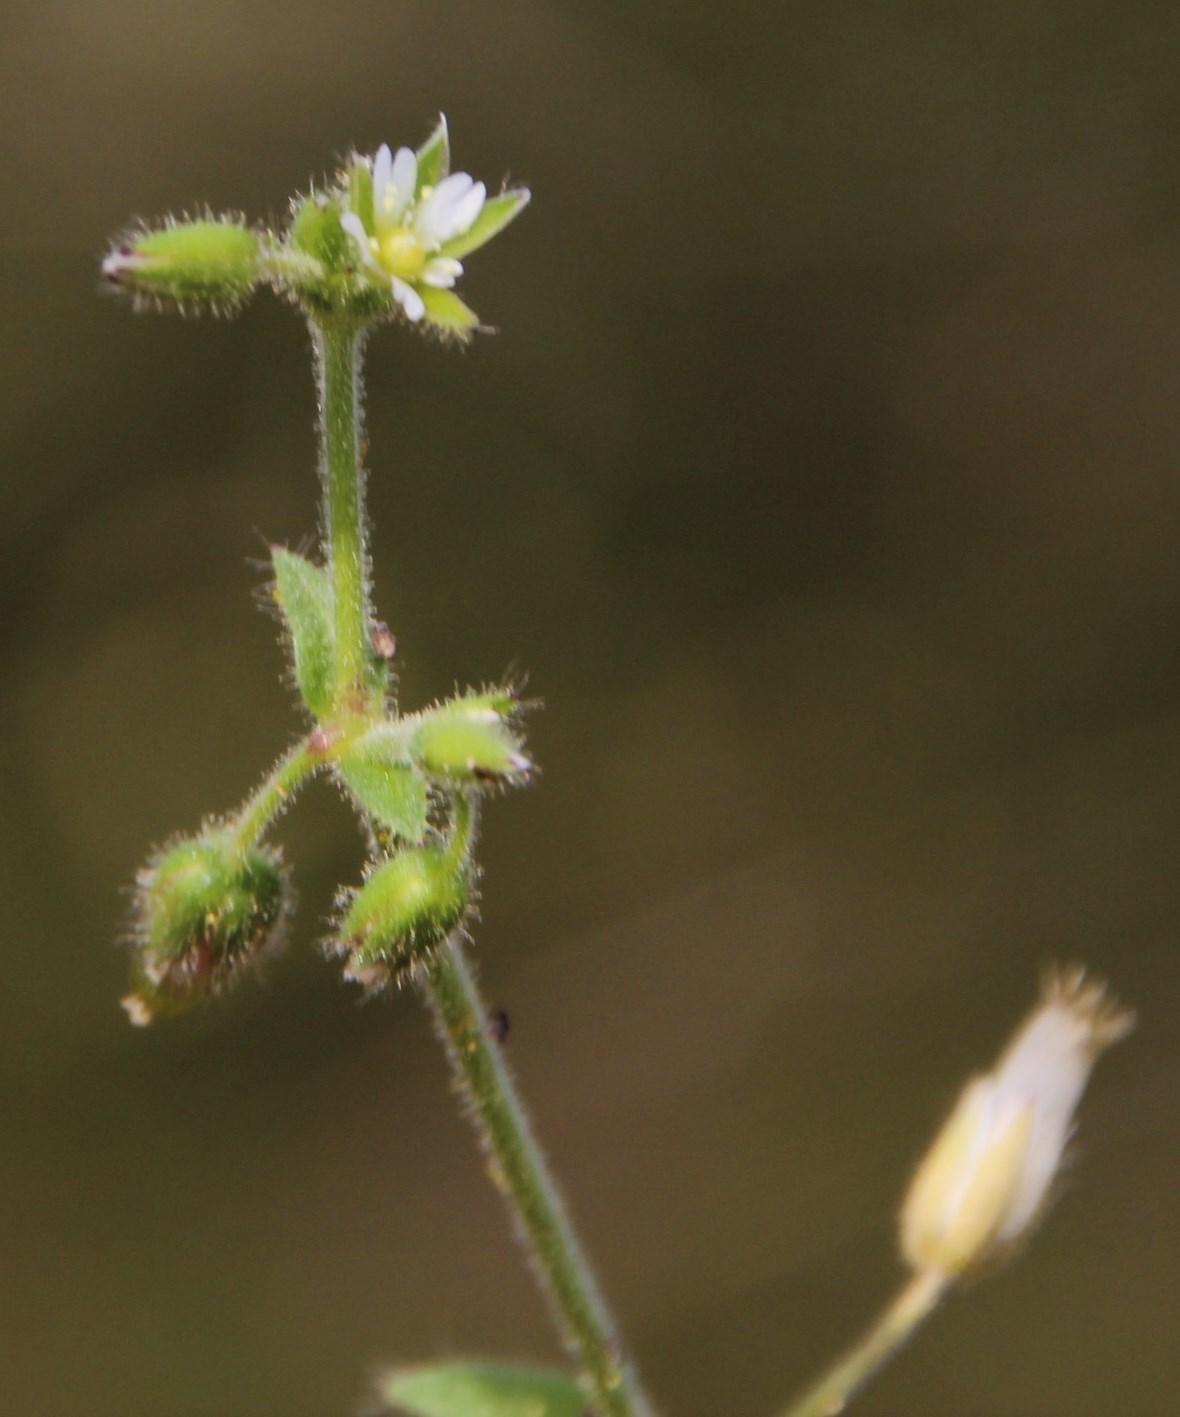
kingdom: Plantae
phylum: Tracheophyta
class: Magnoliopsida
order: Caryophyllales
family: Caryophyllaceae
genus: Stellaria
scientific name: Stellaria media
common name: Common chickweed
